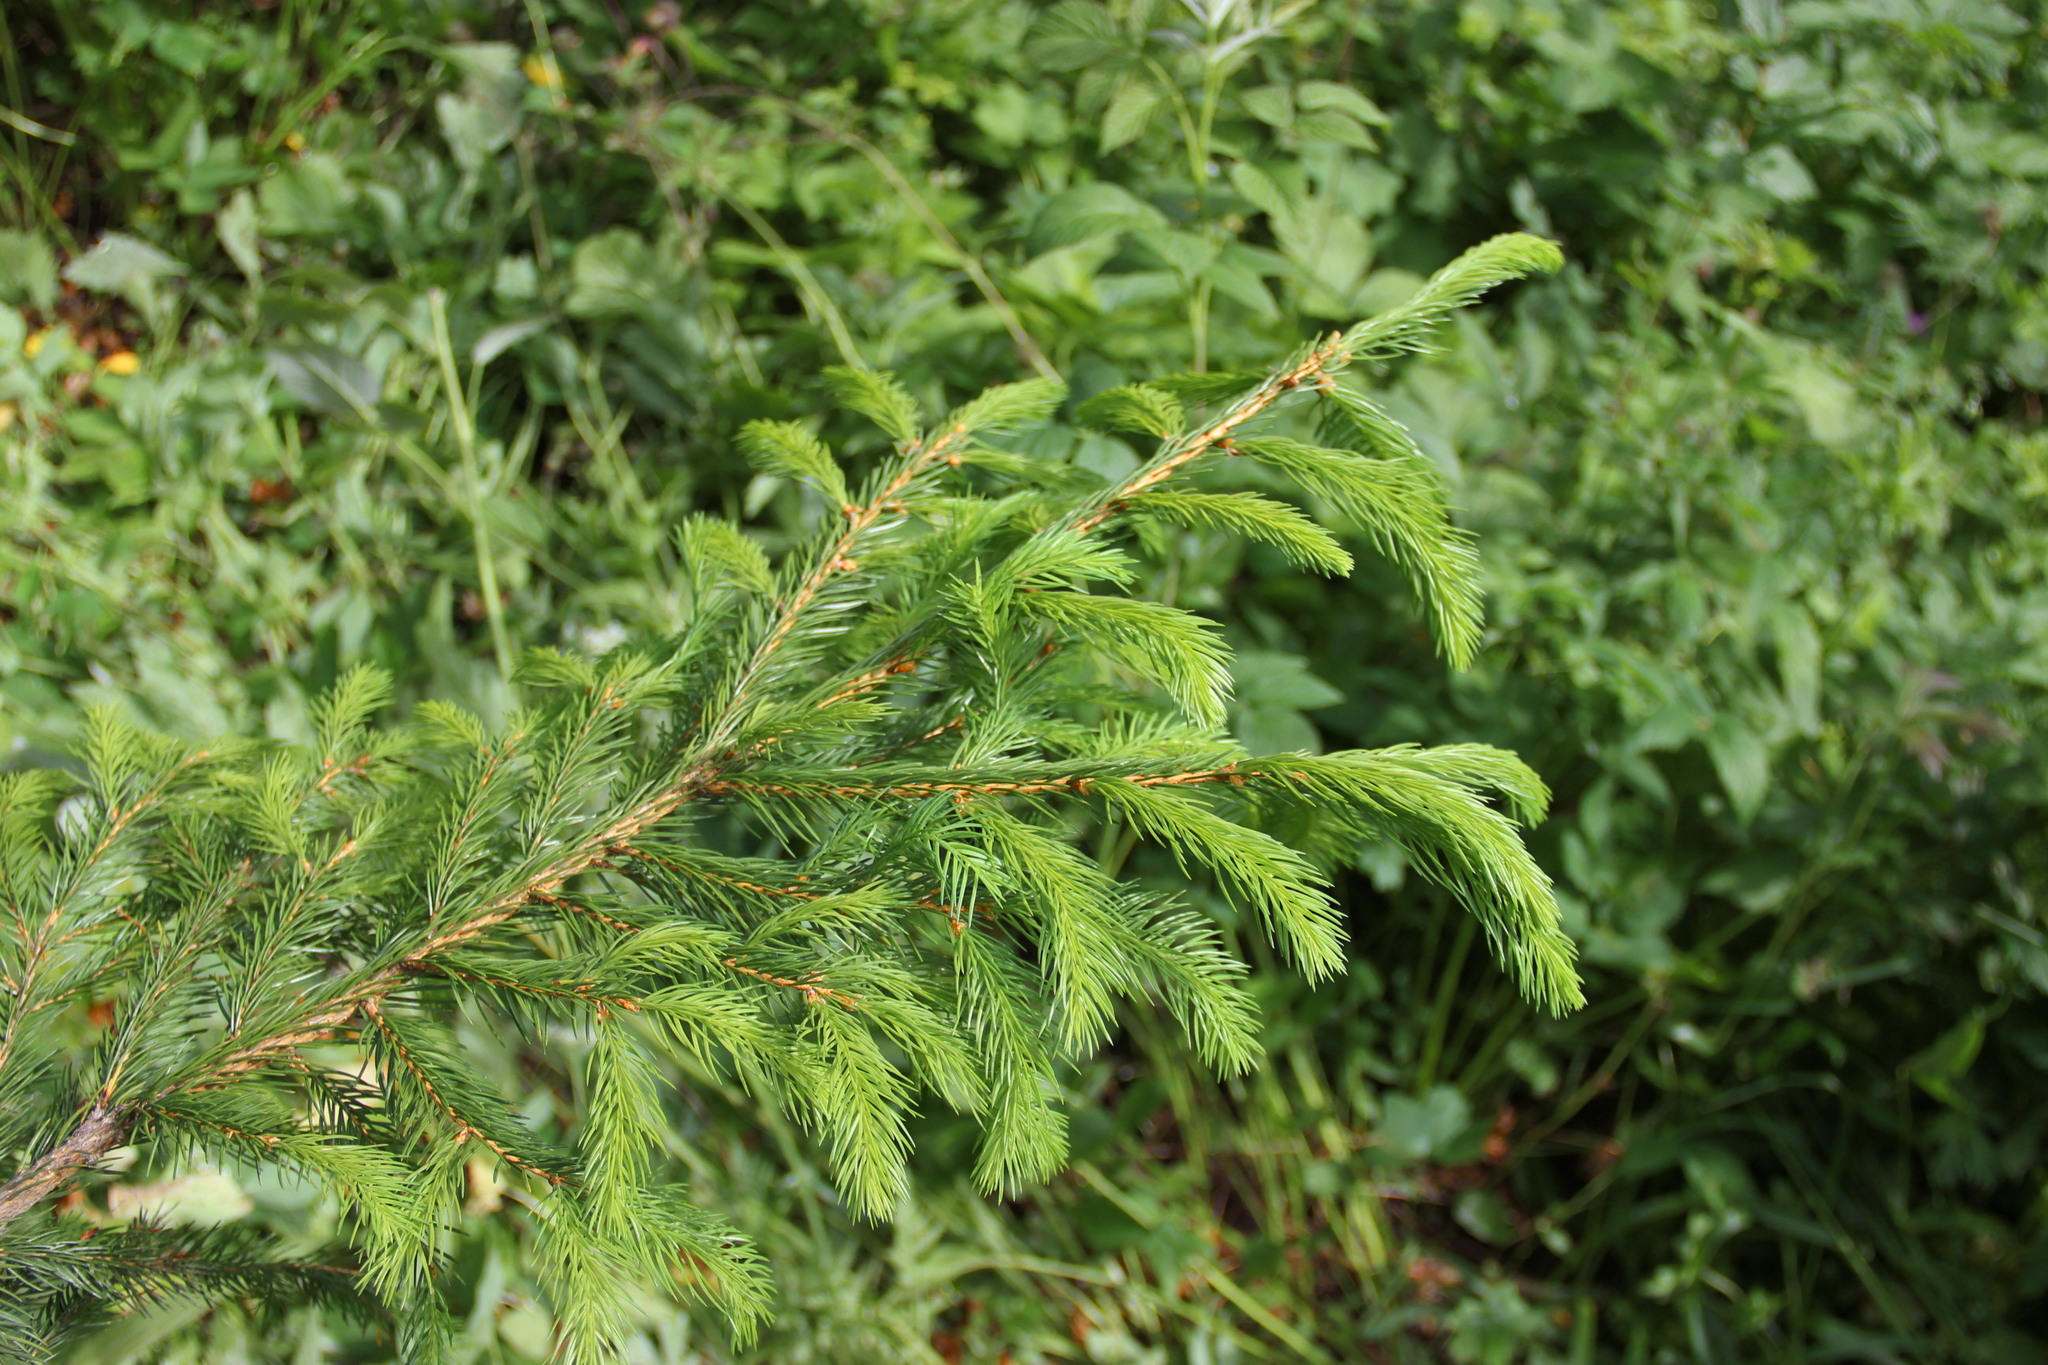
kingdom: Plantae
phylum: Tracheophyta
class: Pinopsida
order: Pinales
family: Pinaceae
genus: Picea
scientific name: Picea abies
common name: Norway spruce
